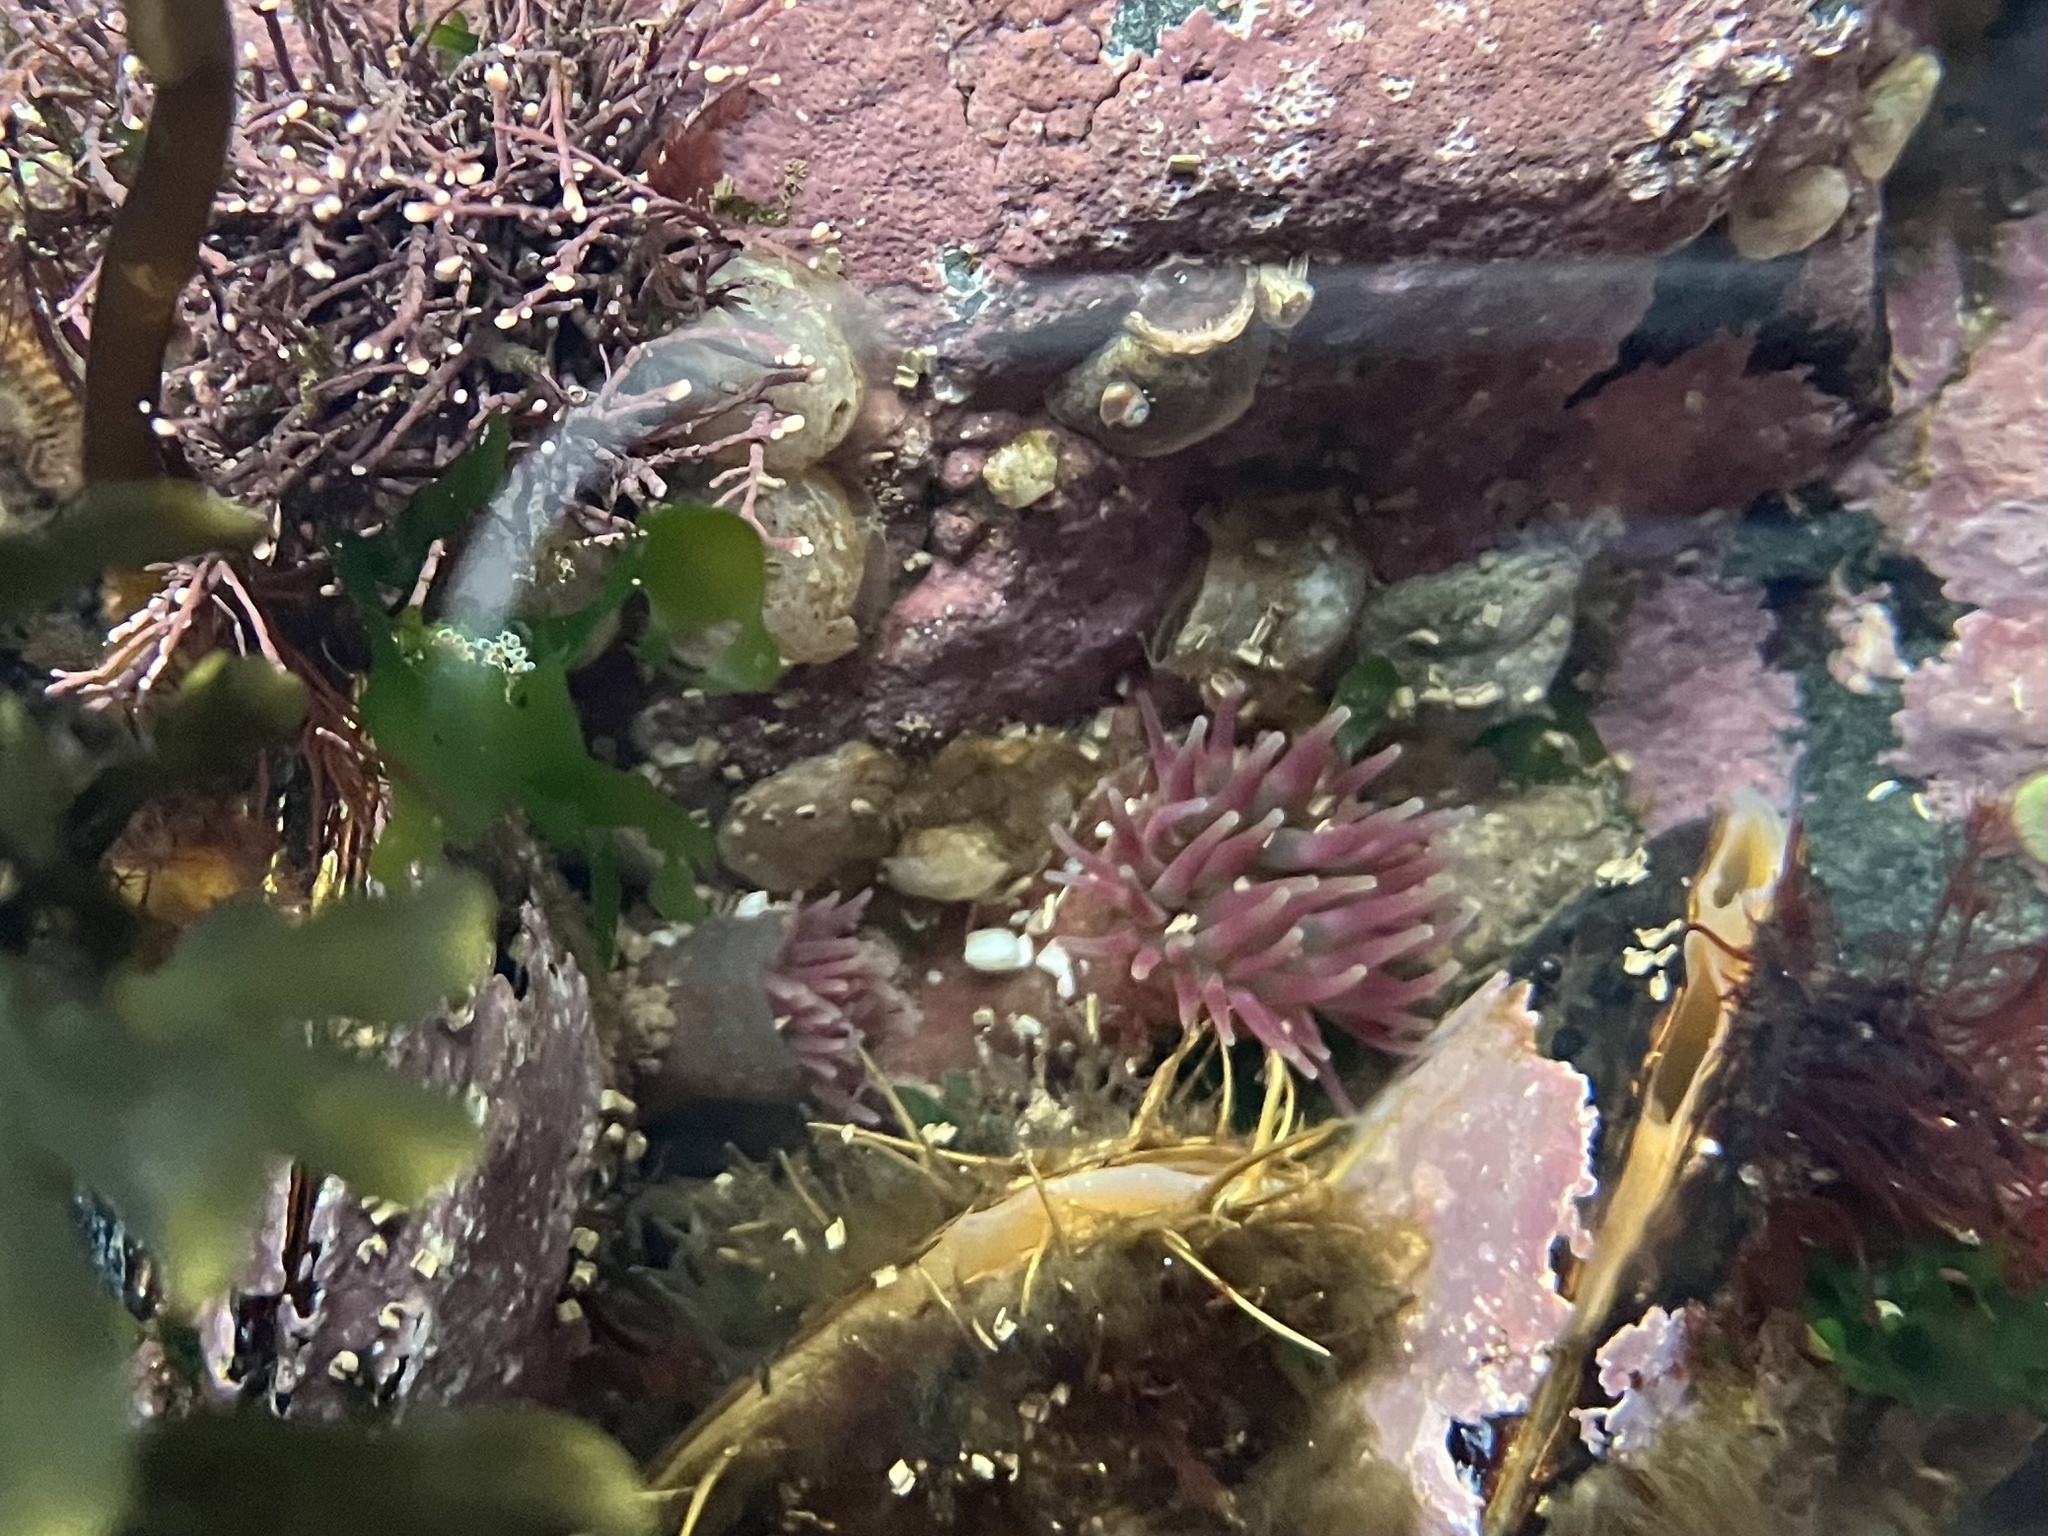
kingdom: Animalia
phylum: Mollusca
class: Bivalvia
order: Mytilida
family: Mytilidae
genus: Modiolus
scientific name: Modiolus modiolus
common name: Horse-mussel
